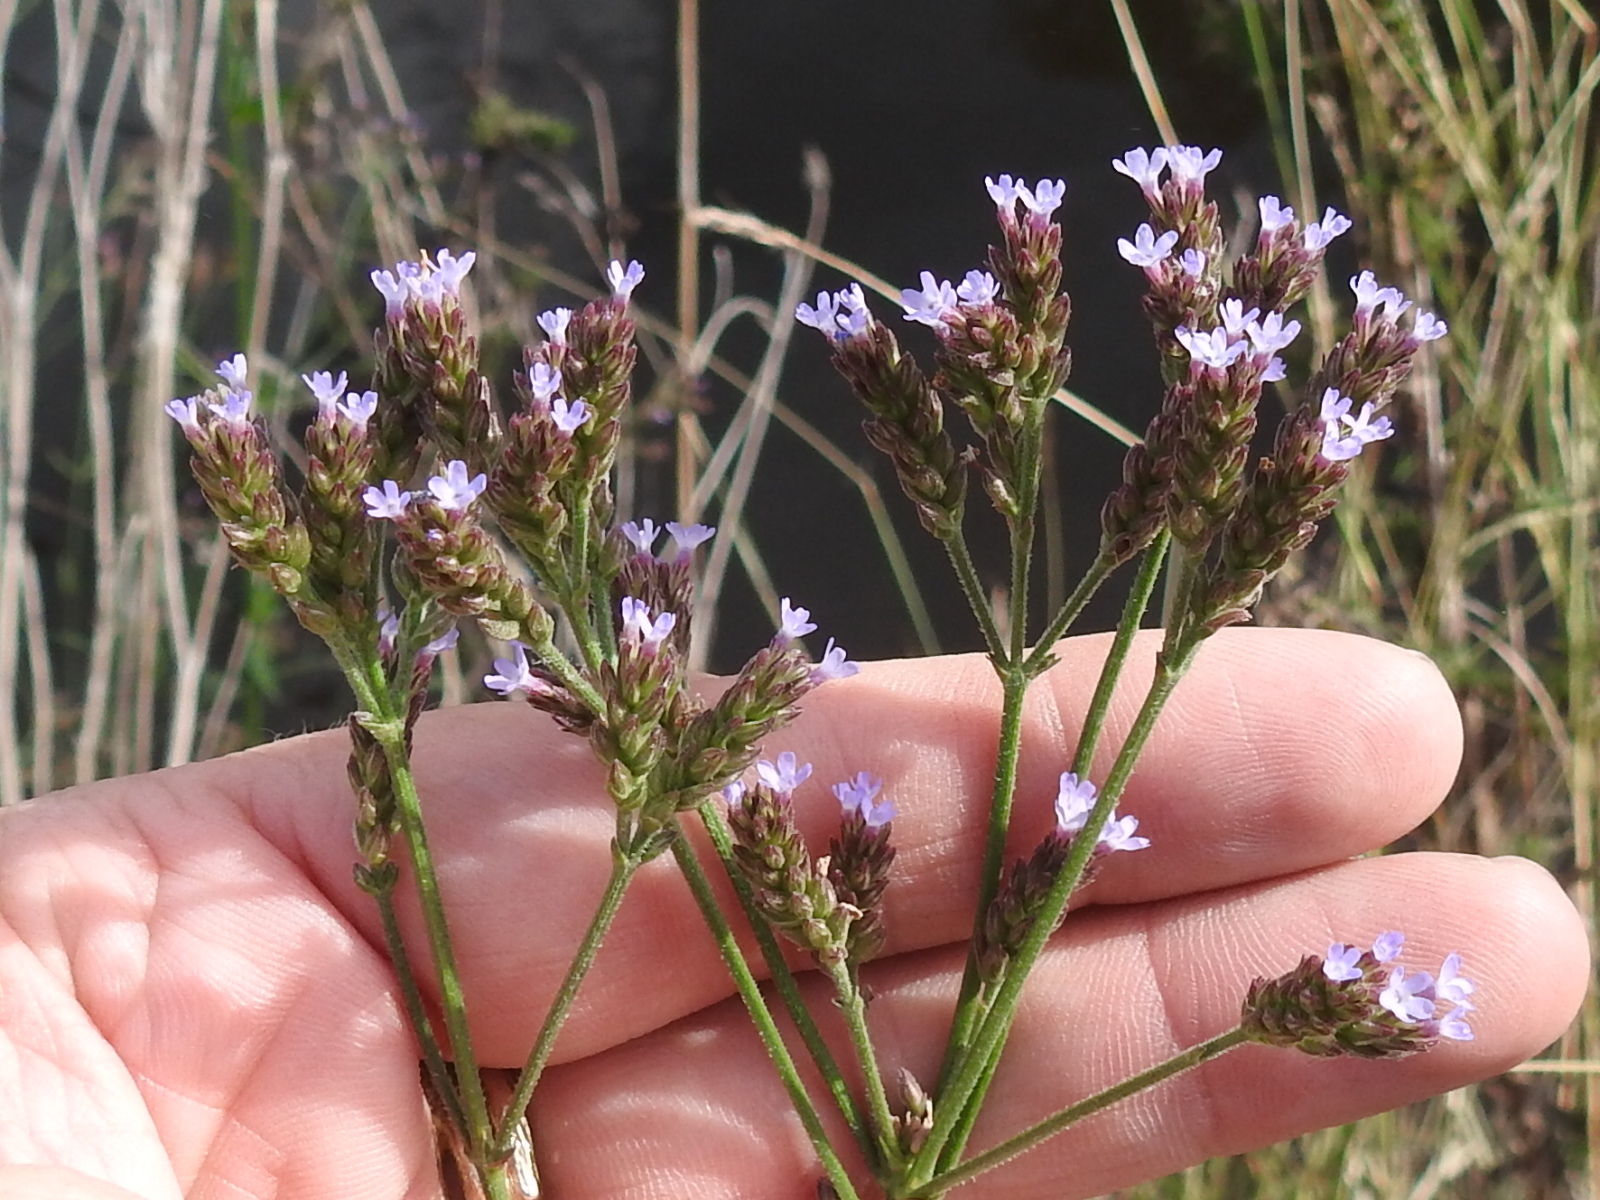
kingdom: Plantae
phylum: Tracheophyta
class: Magnoliopsida
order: Lamiales
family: Verbenaceae
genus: Verbena
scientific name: Verbena brasiliensis
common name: Brazilian vervain
